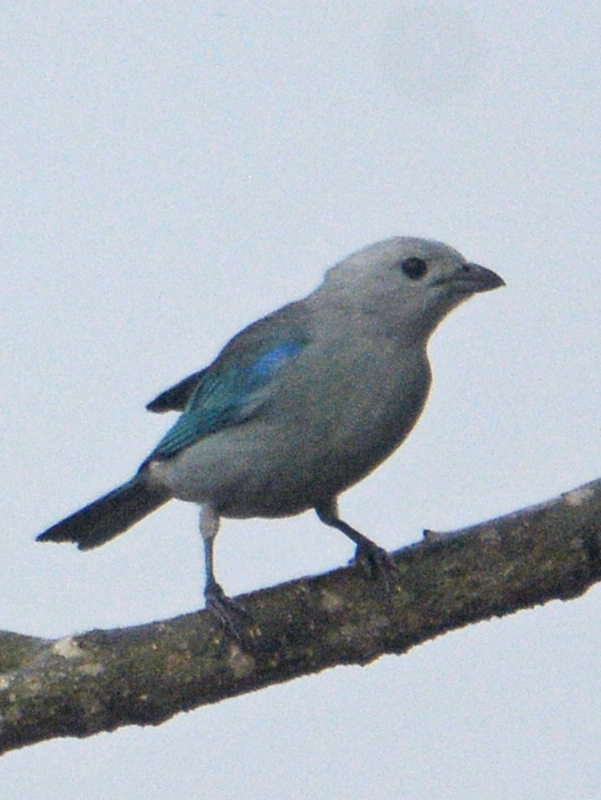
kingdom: Animalia
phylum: Chordata
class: Aves
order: Passeriformes
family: Thraupidae
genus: Thraupis
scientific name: Thraupis episcopus
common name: Blue-grey tanager
